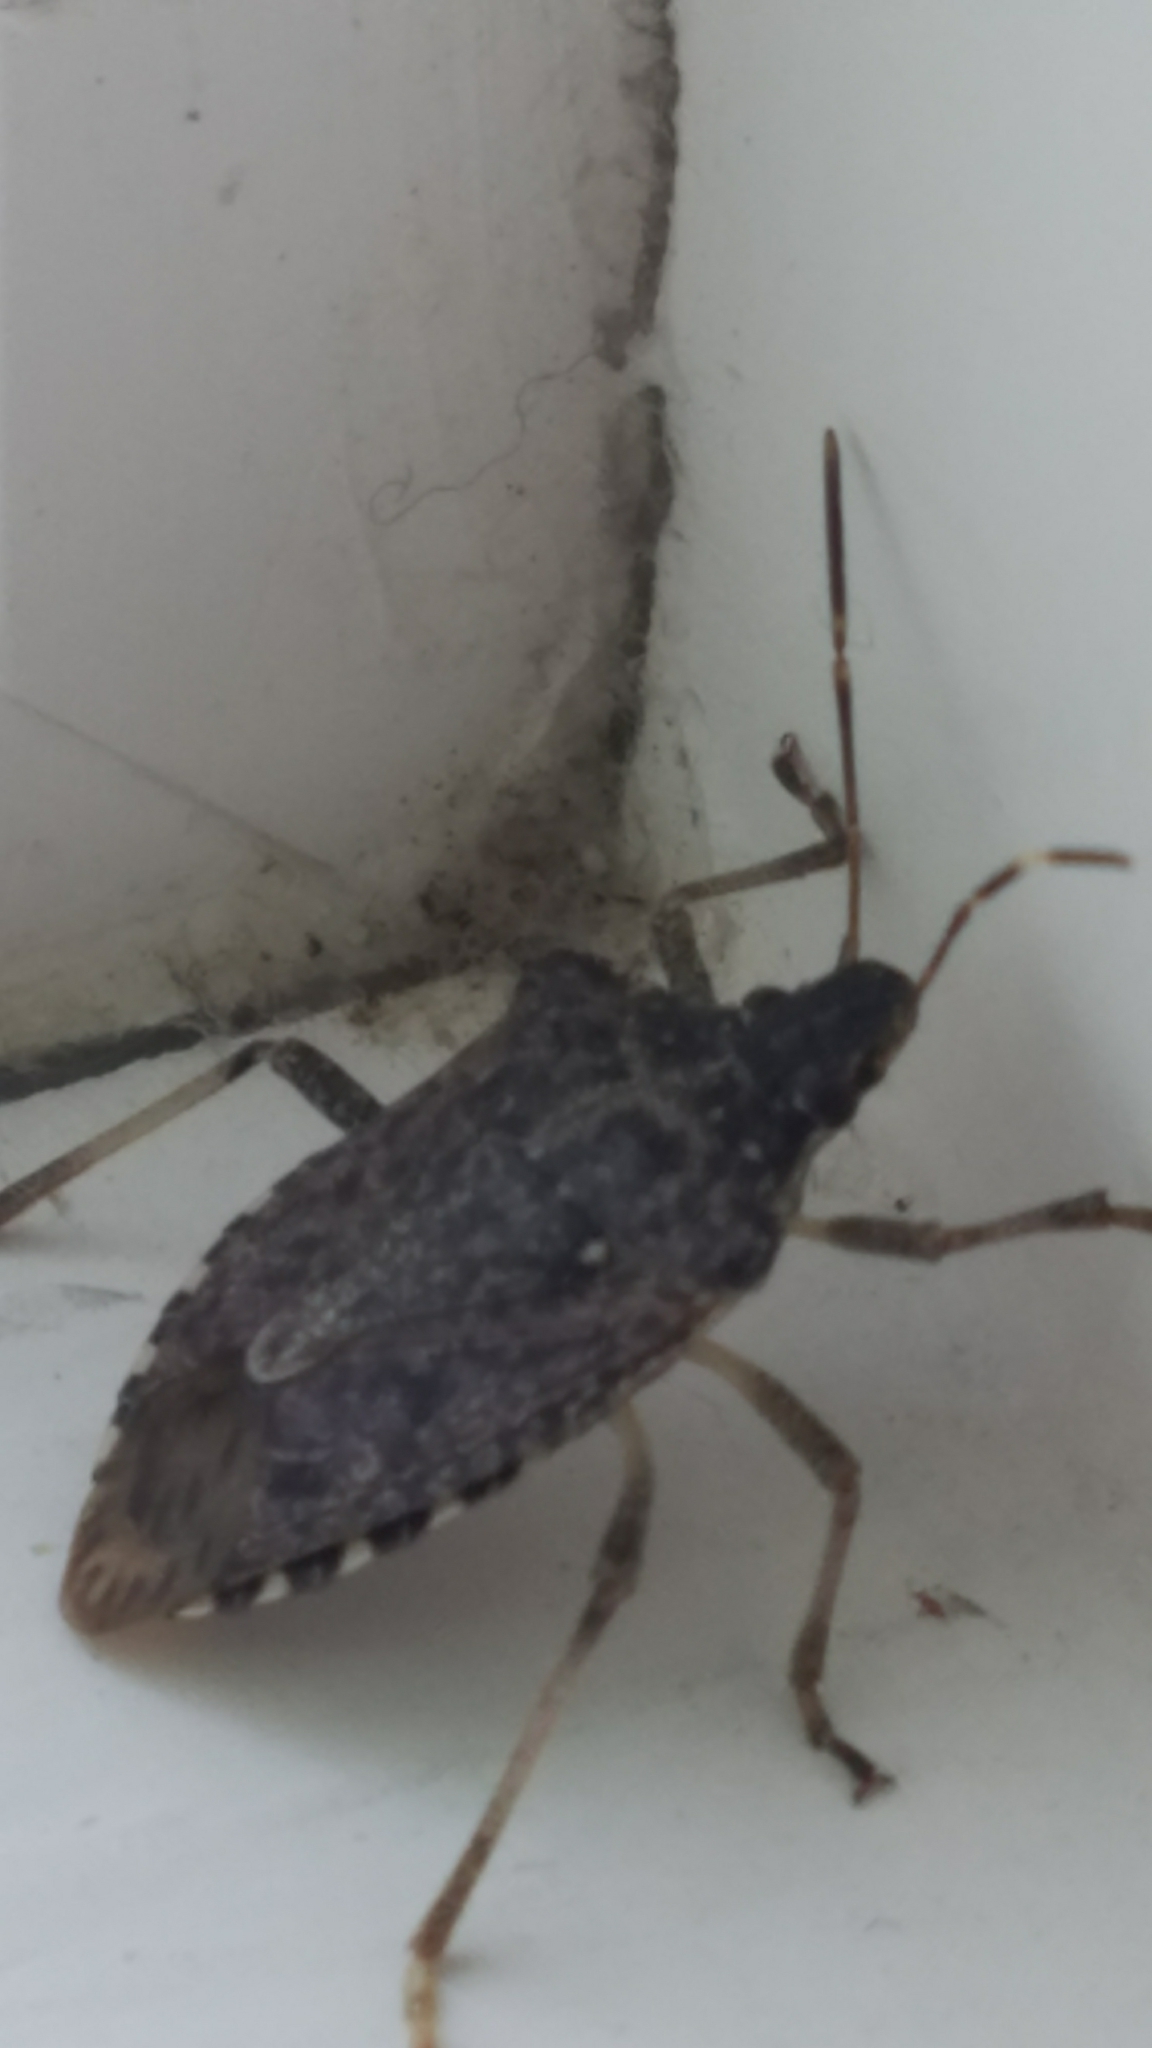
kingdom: Animalia
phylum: Arthropoda
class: Insecta
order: Hemiptera
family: Pentatomidae
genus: Halyomorpha
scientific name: Halyomorpha halys
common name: Brown marmorated stink bug
